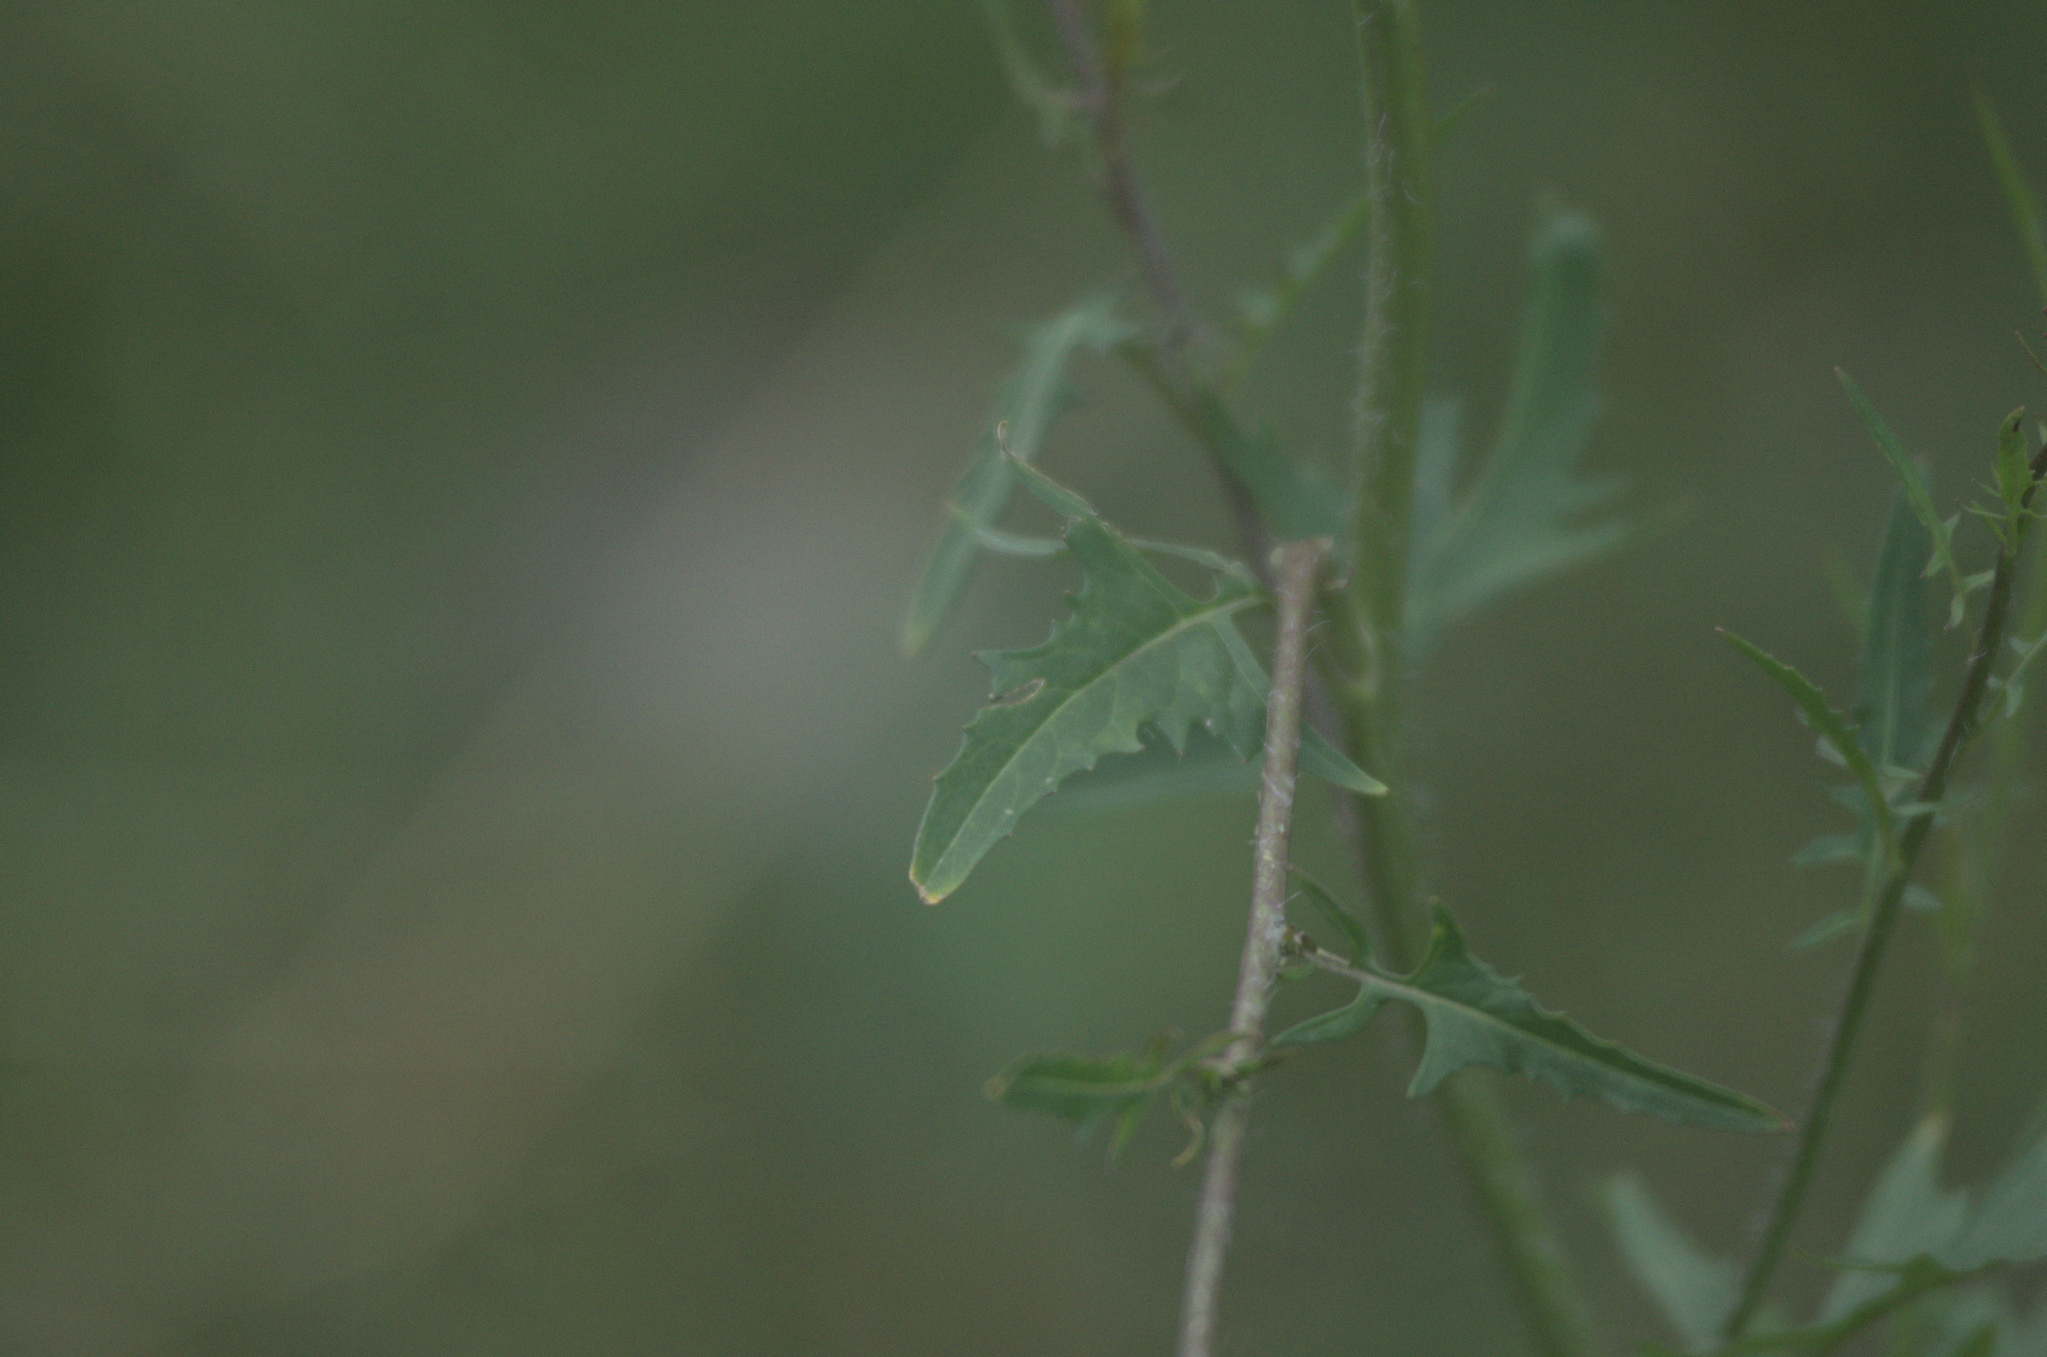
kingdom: Plantae
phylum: Tracheophyta
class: Magnoliopsida
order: Brassicales
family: Brassicaceae
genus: Sisymbrium
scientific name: Sisymbrium loeselii
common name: False london-rocket
